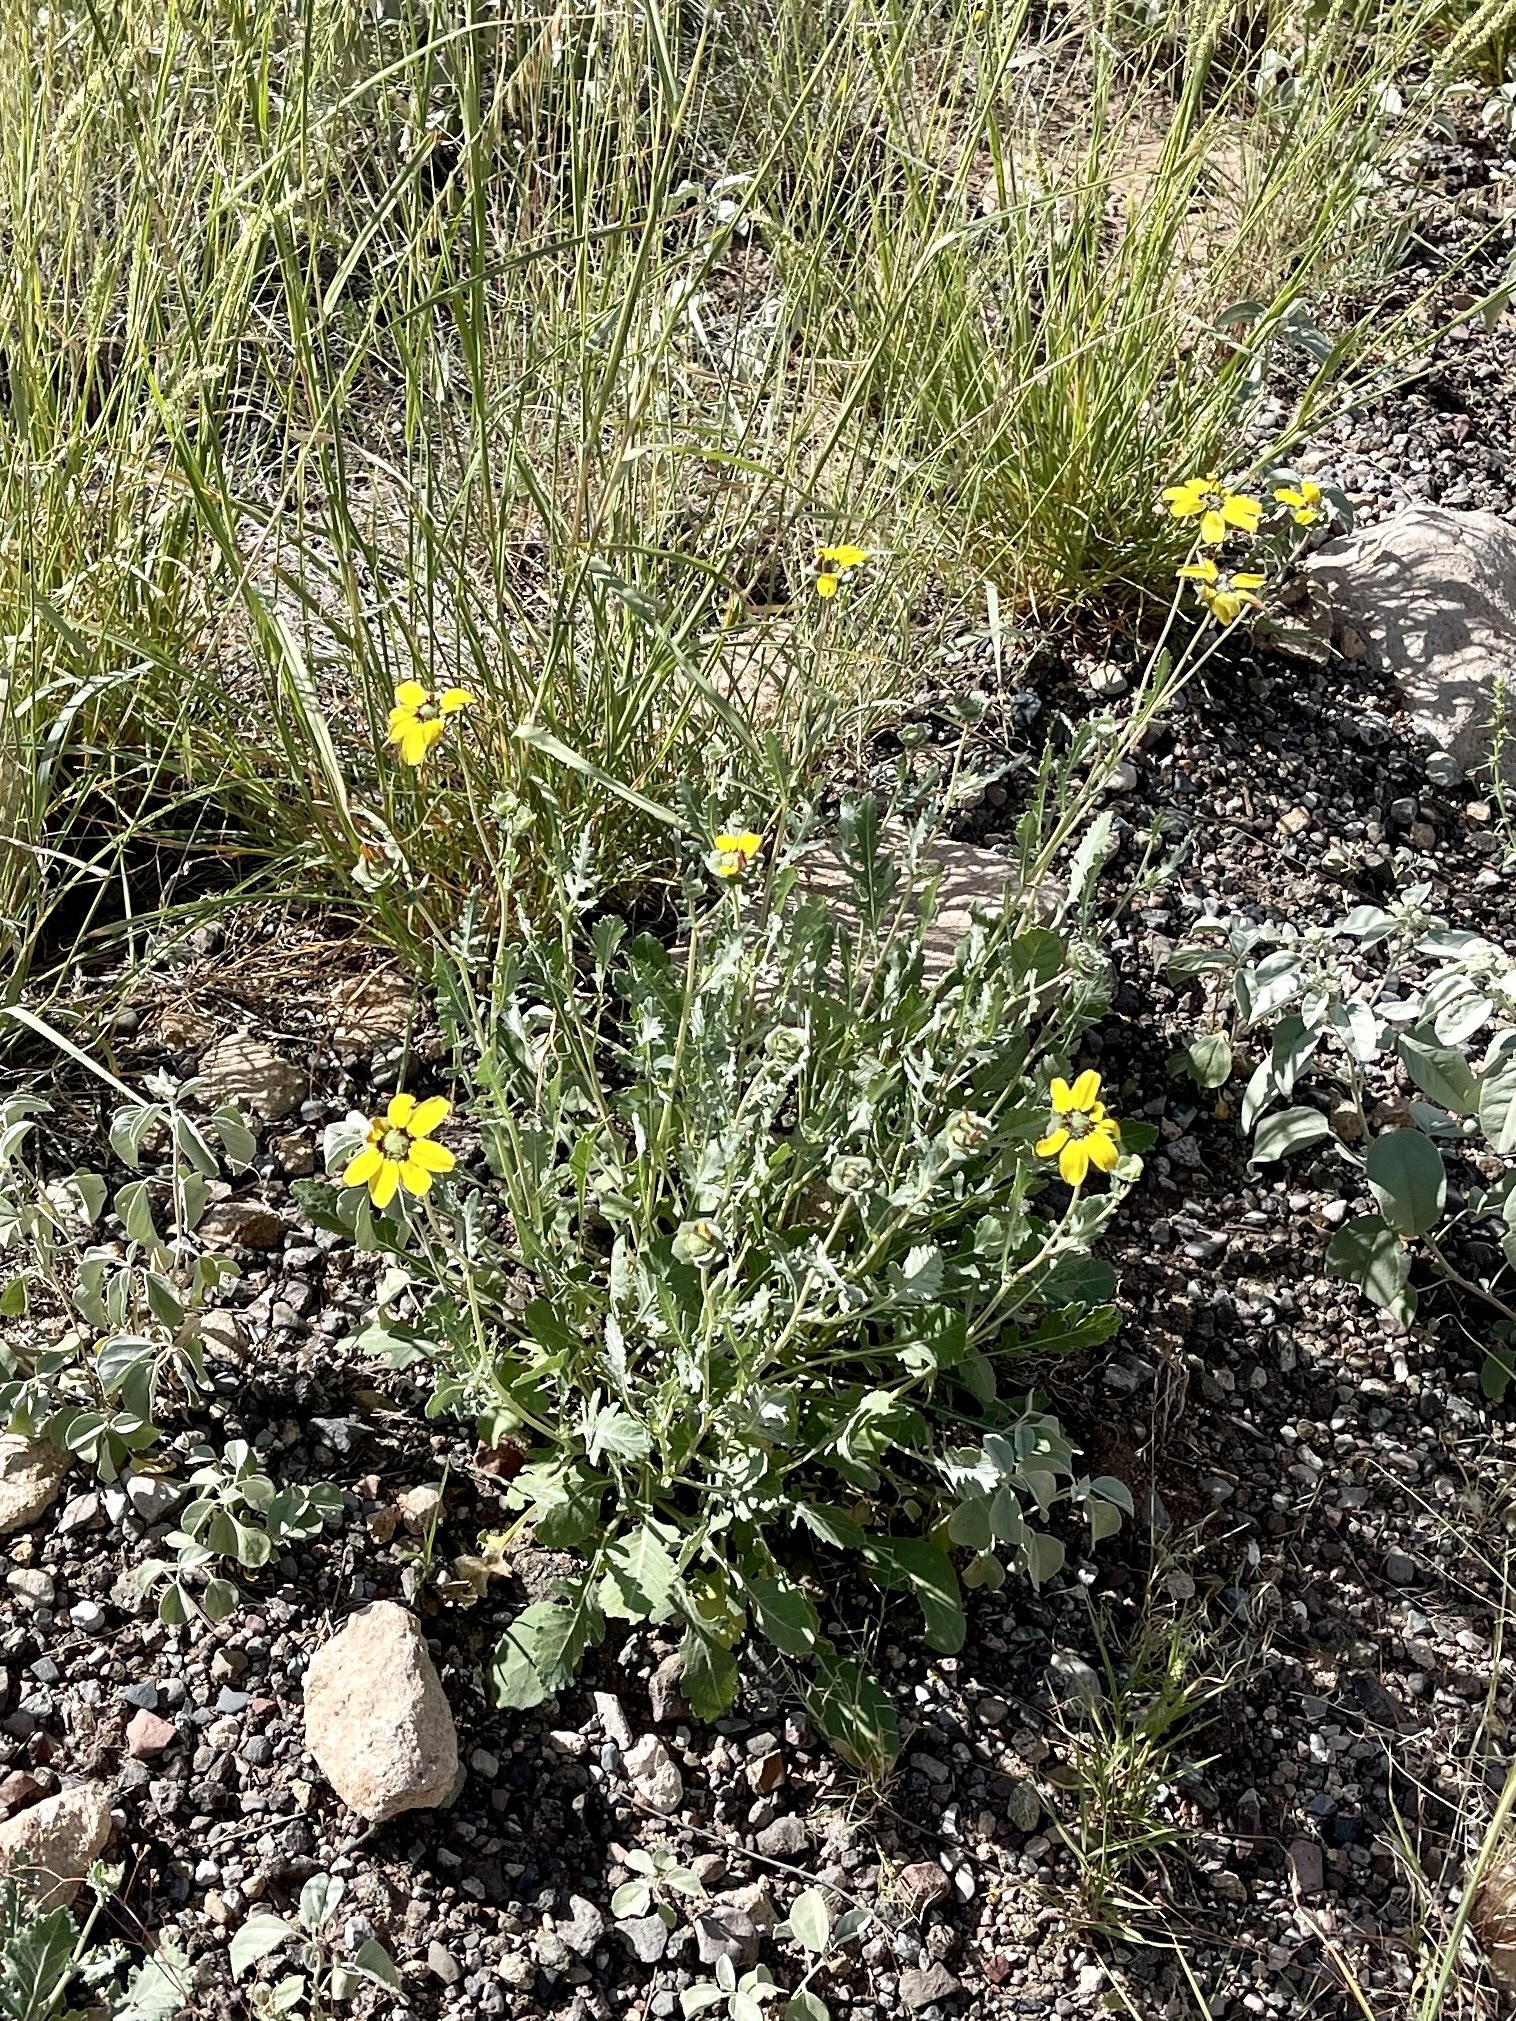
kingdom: Plantae
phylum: Tracheophyta
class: Magnoliopsida
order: Asterales
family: Asteraceae
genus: Berlandiera
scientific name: Berlandiera lyrata
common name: Chocolate-flower
